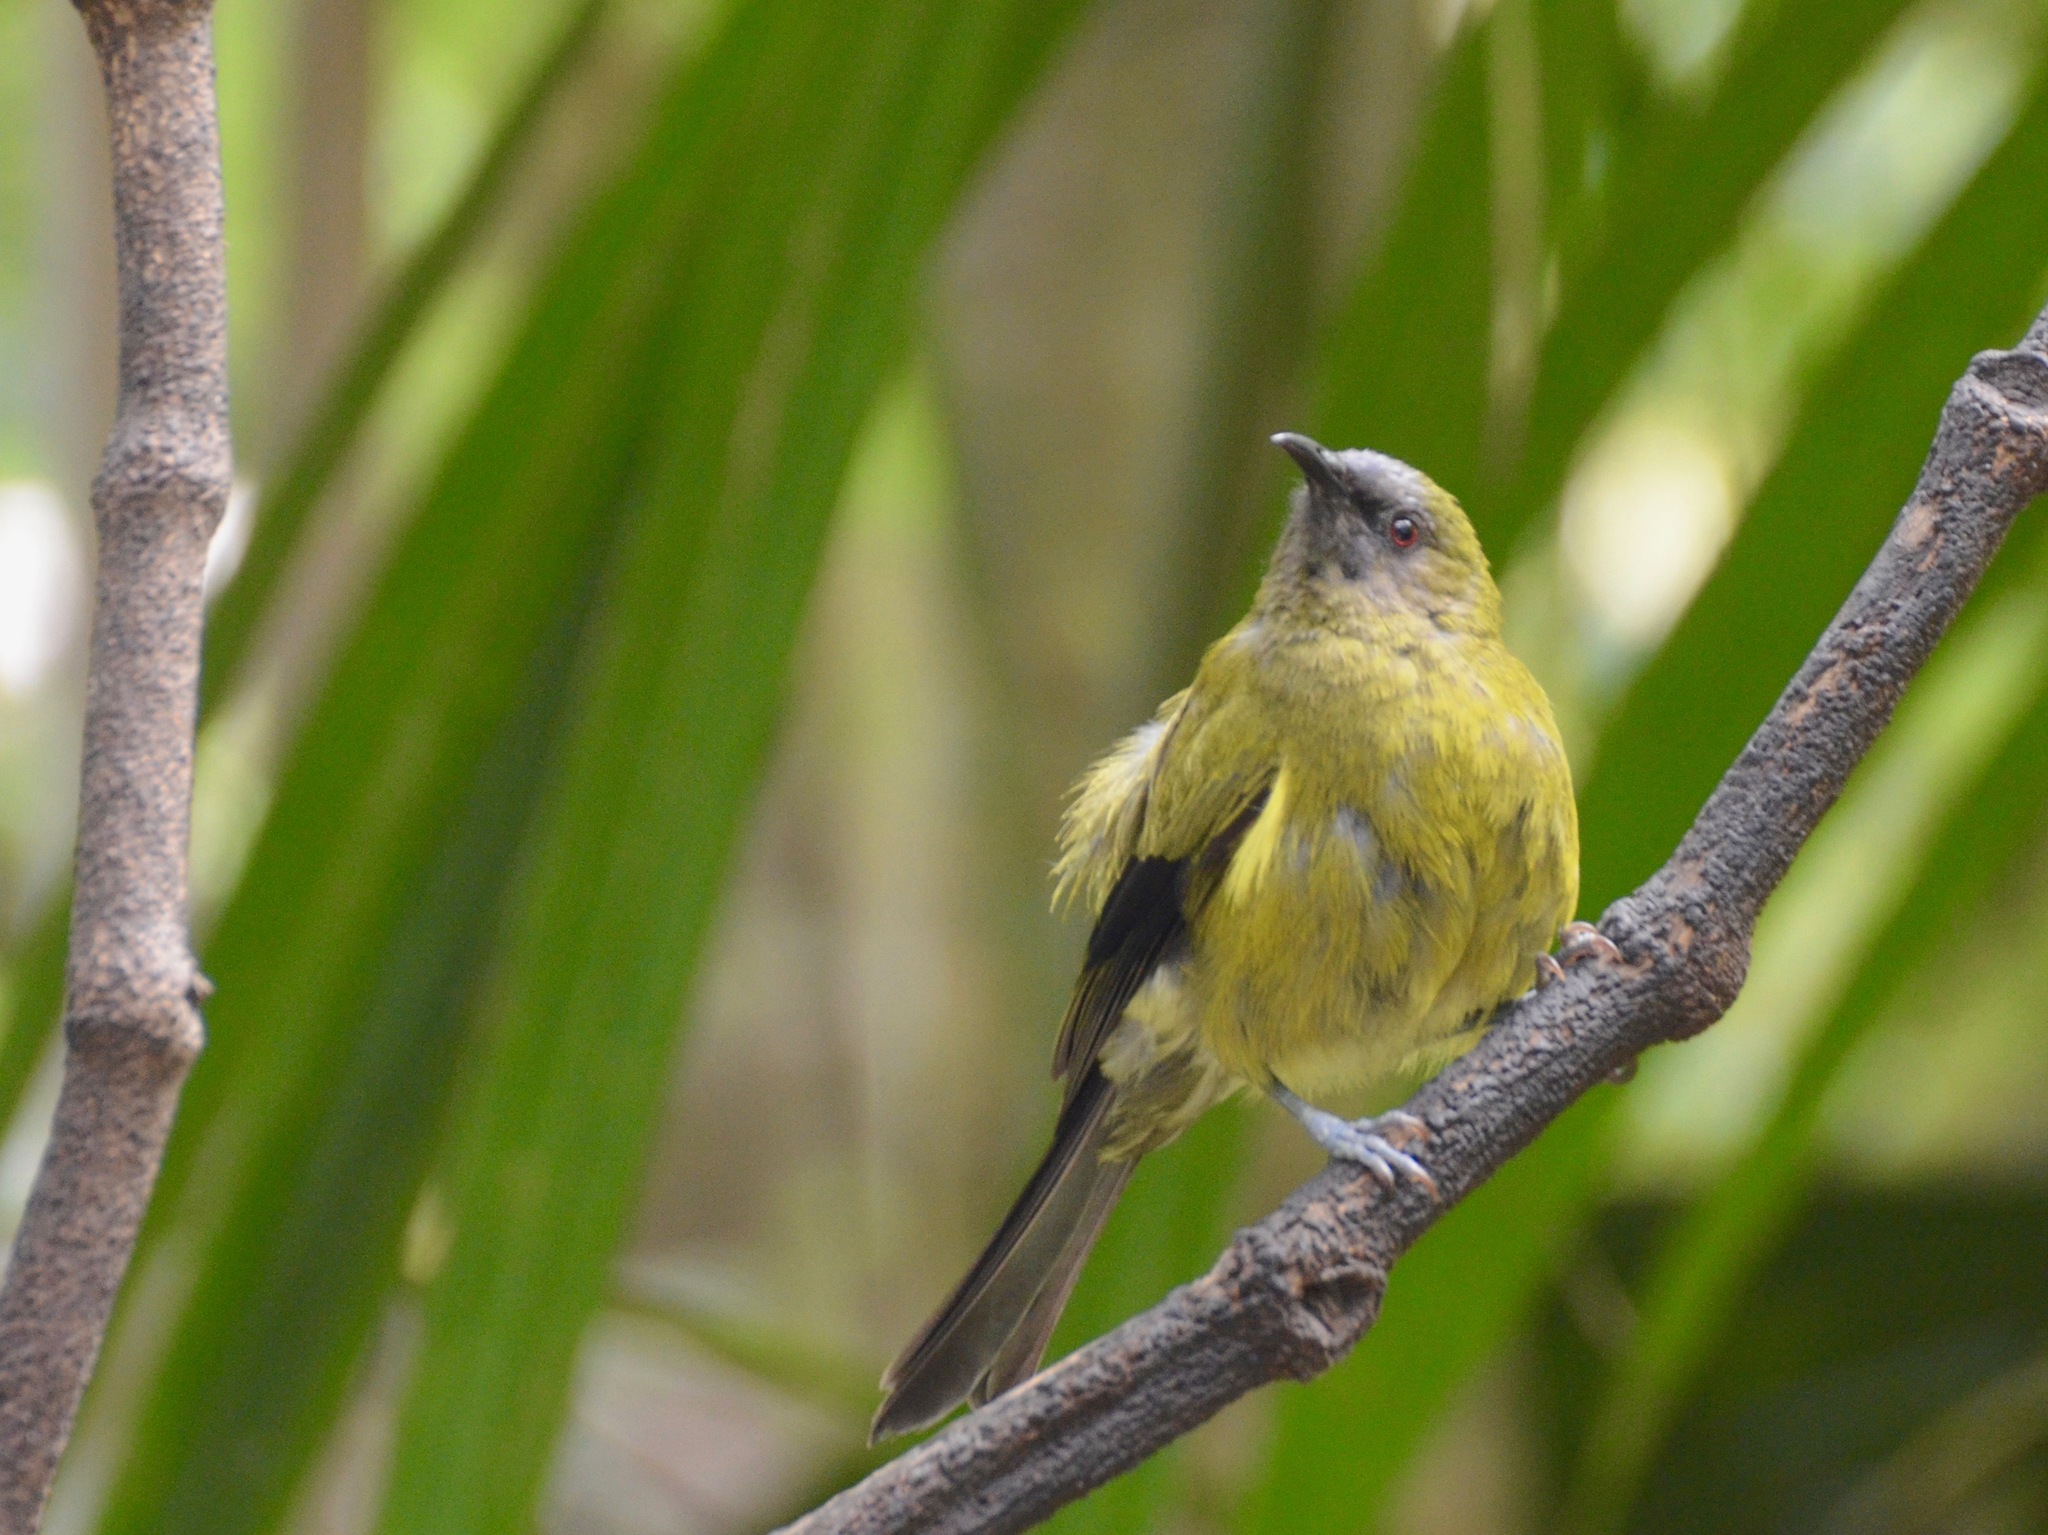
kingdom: Animalia
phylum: Chordata
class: Aves
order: Passeriformes
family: Meliphagidae
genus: Anthornis
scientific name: Anthornis melanura
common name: New zealand bellbird
